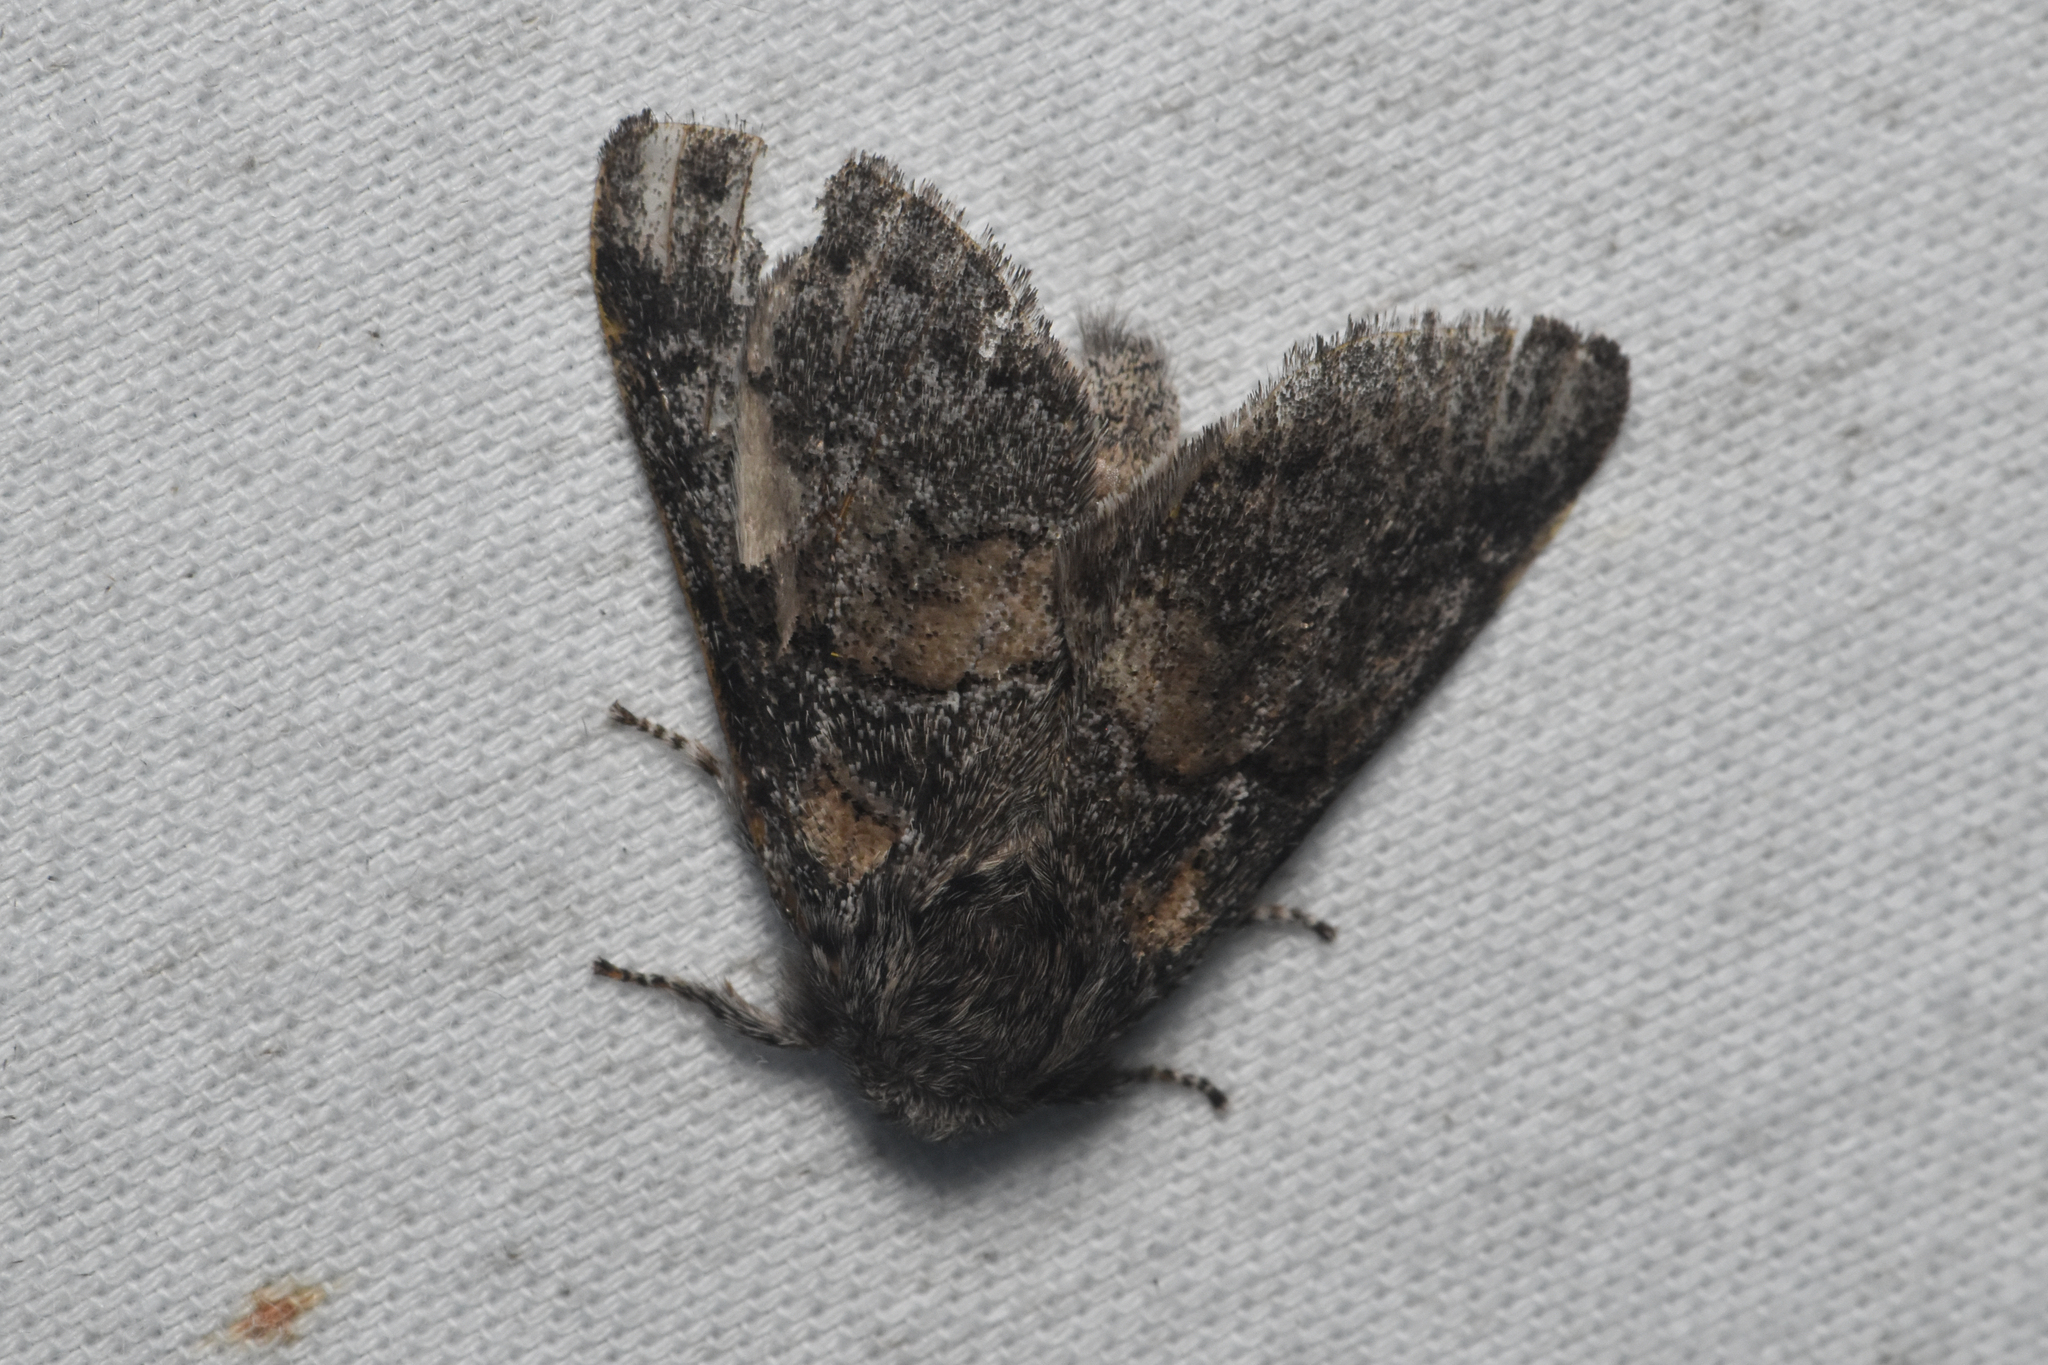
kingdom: Animalia
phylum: Arthropoda
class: Insecta
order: Lepidoptera
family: Notodontidae
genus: Gluphisia
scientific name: Gluphisia septentrionis
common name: Common gluphisia
